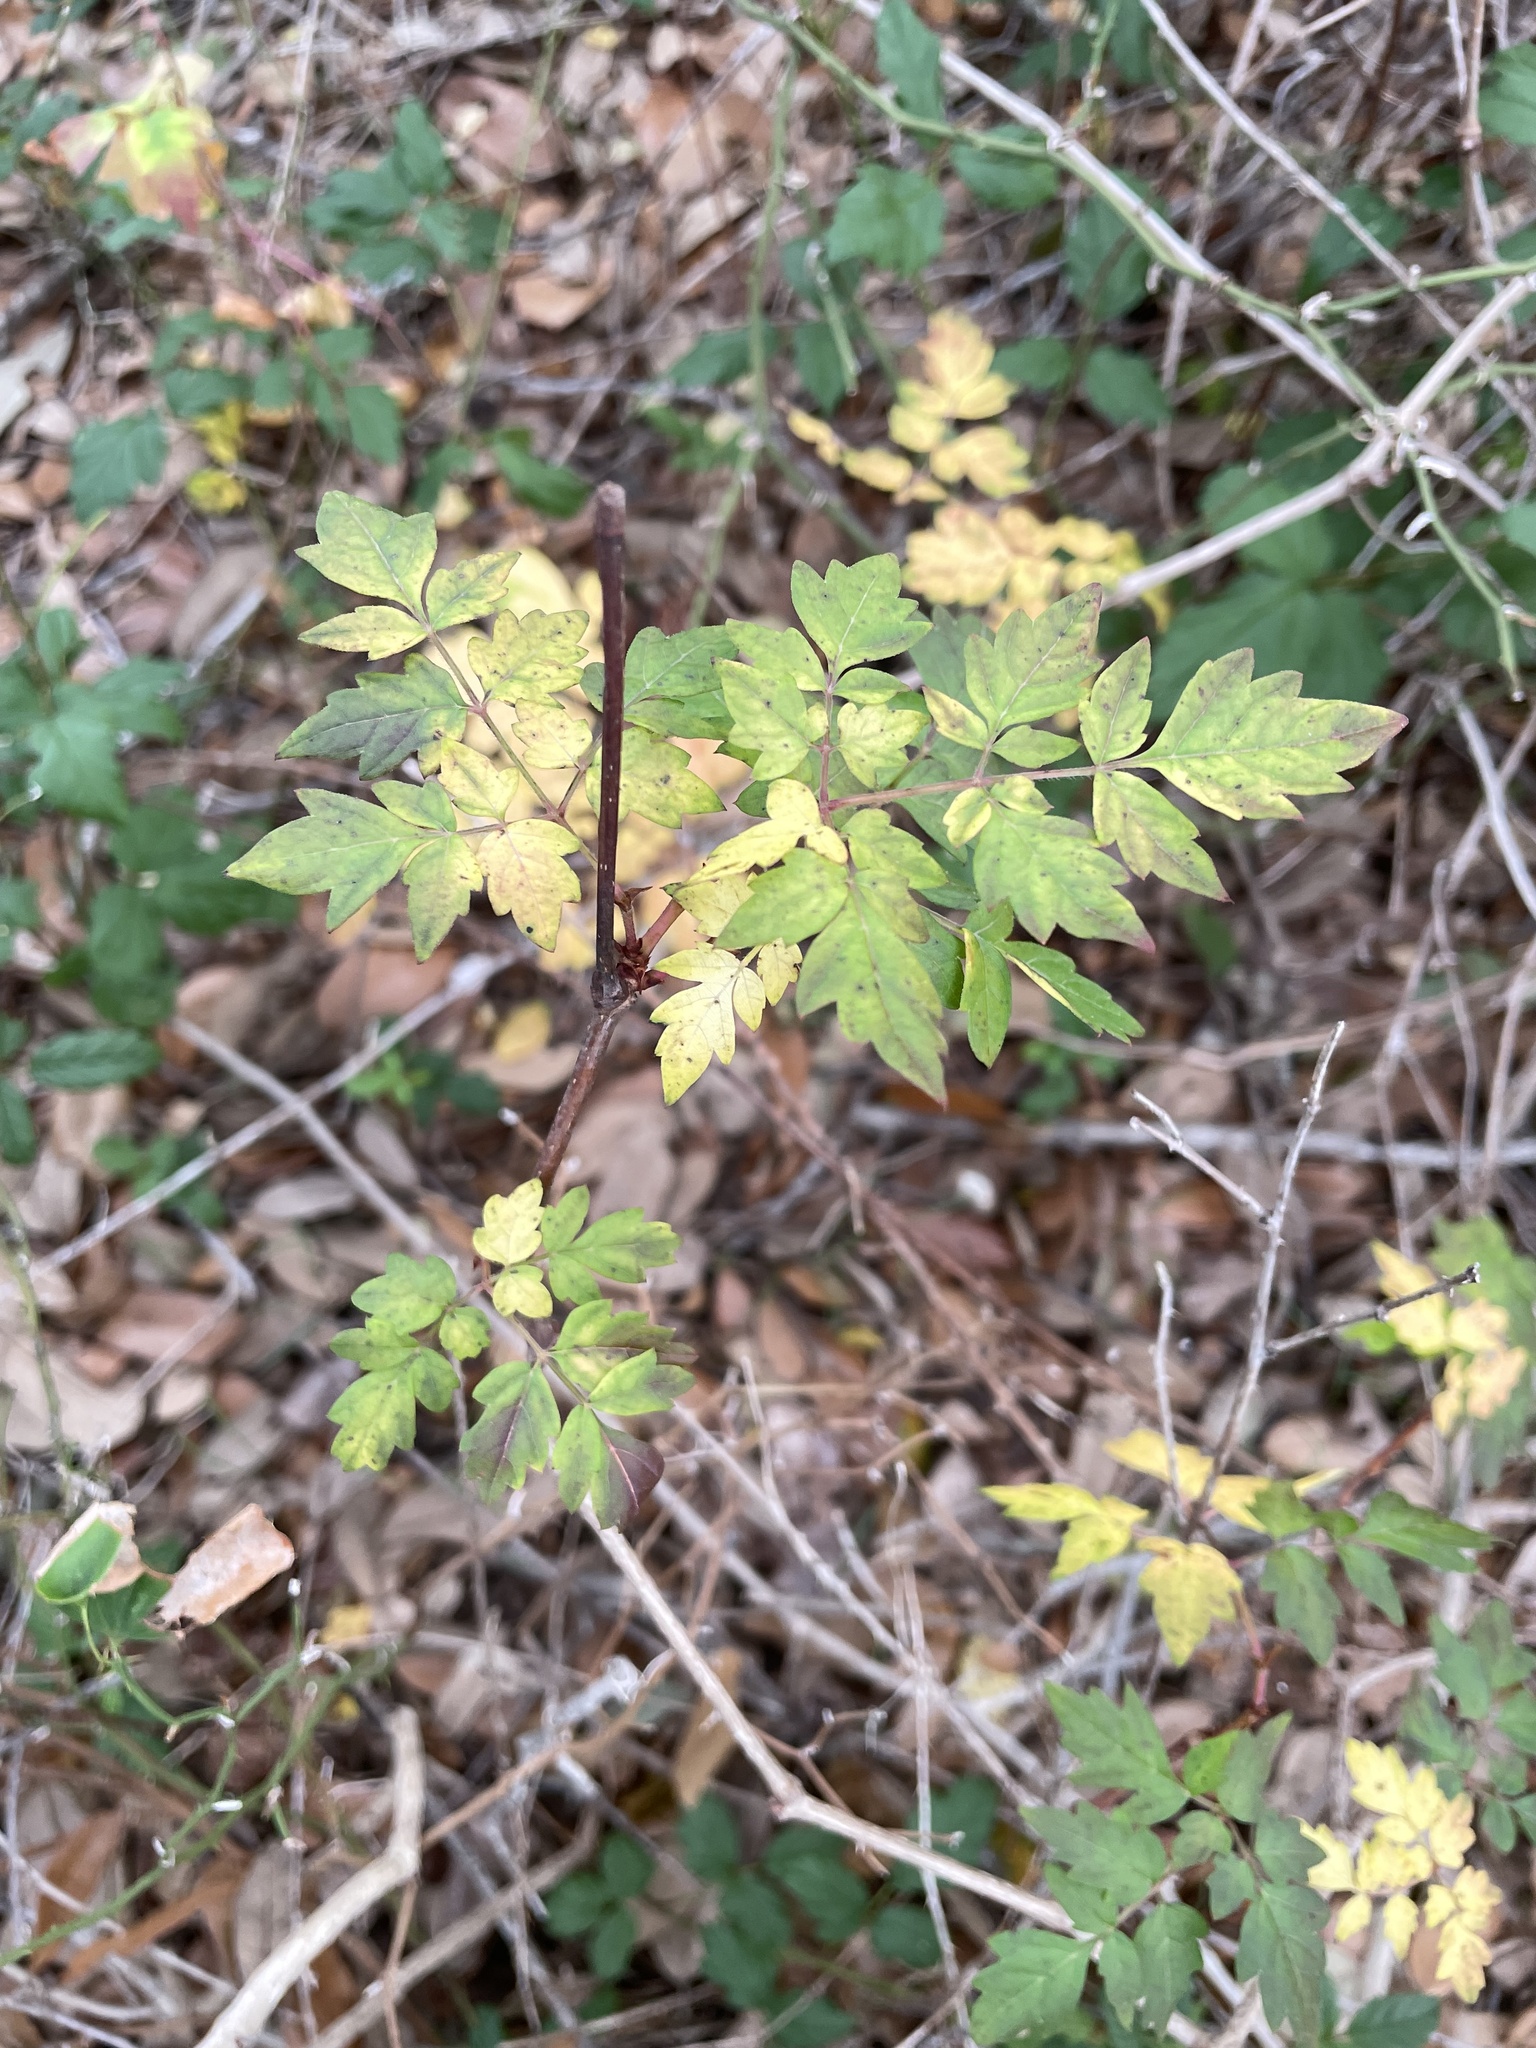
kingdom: Plantae
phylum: Tracheophyta
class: Magnoliopsida
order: Vitales
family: Vitaceae
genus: Nekemias
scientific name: Nekemias arborea
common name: Peppervine
